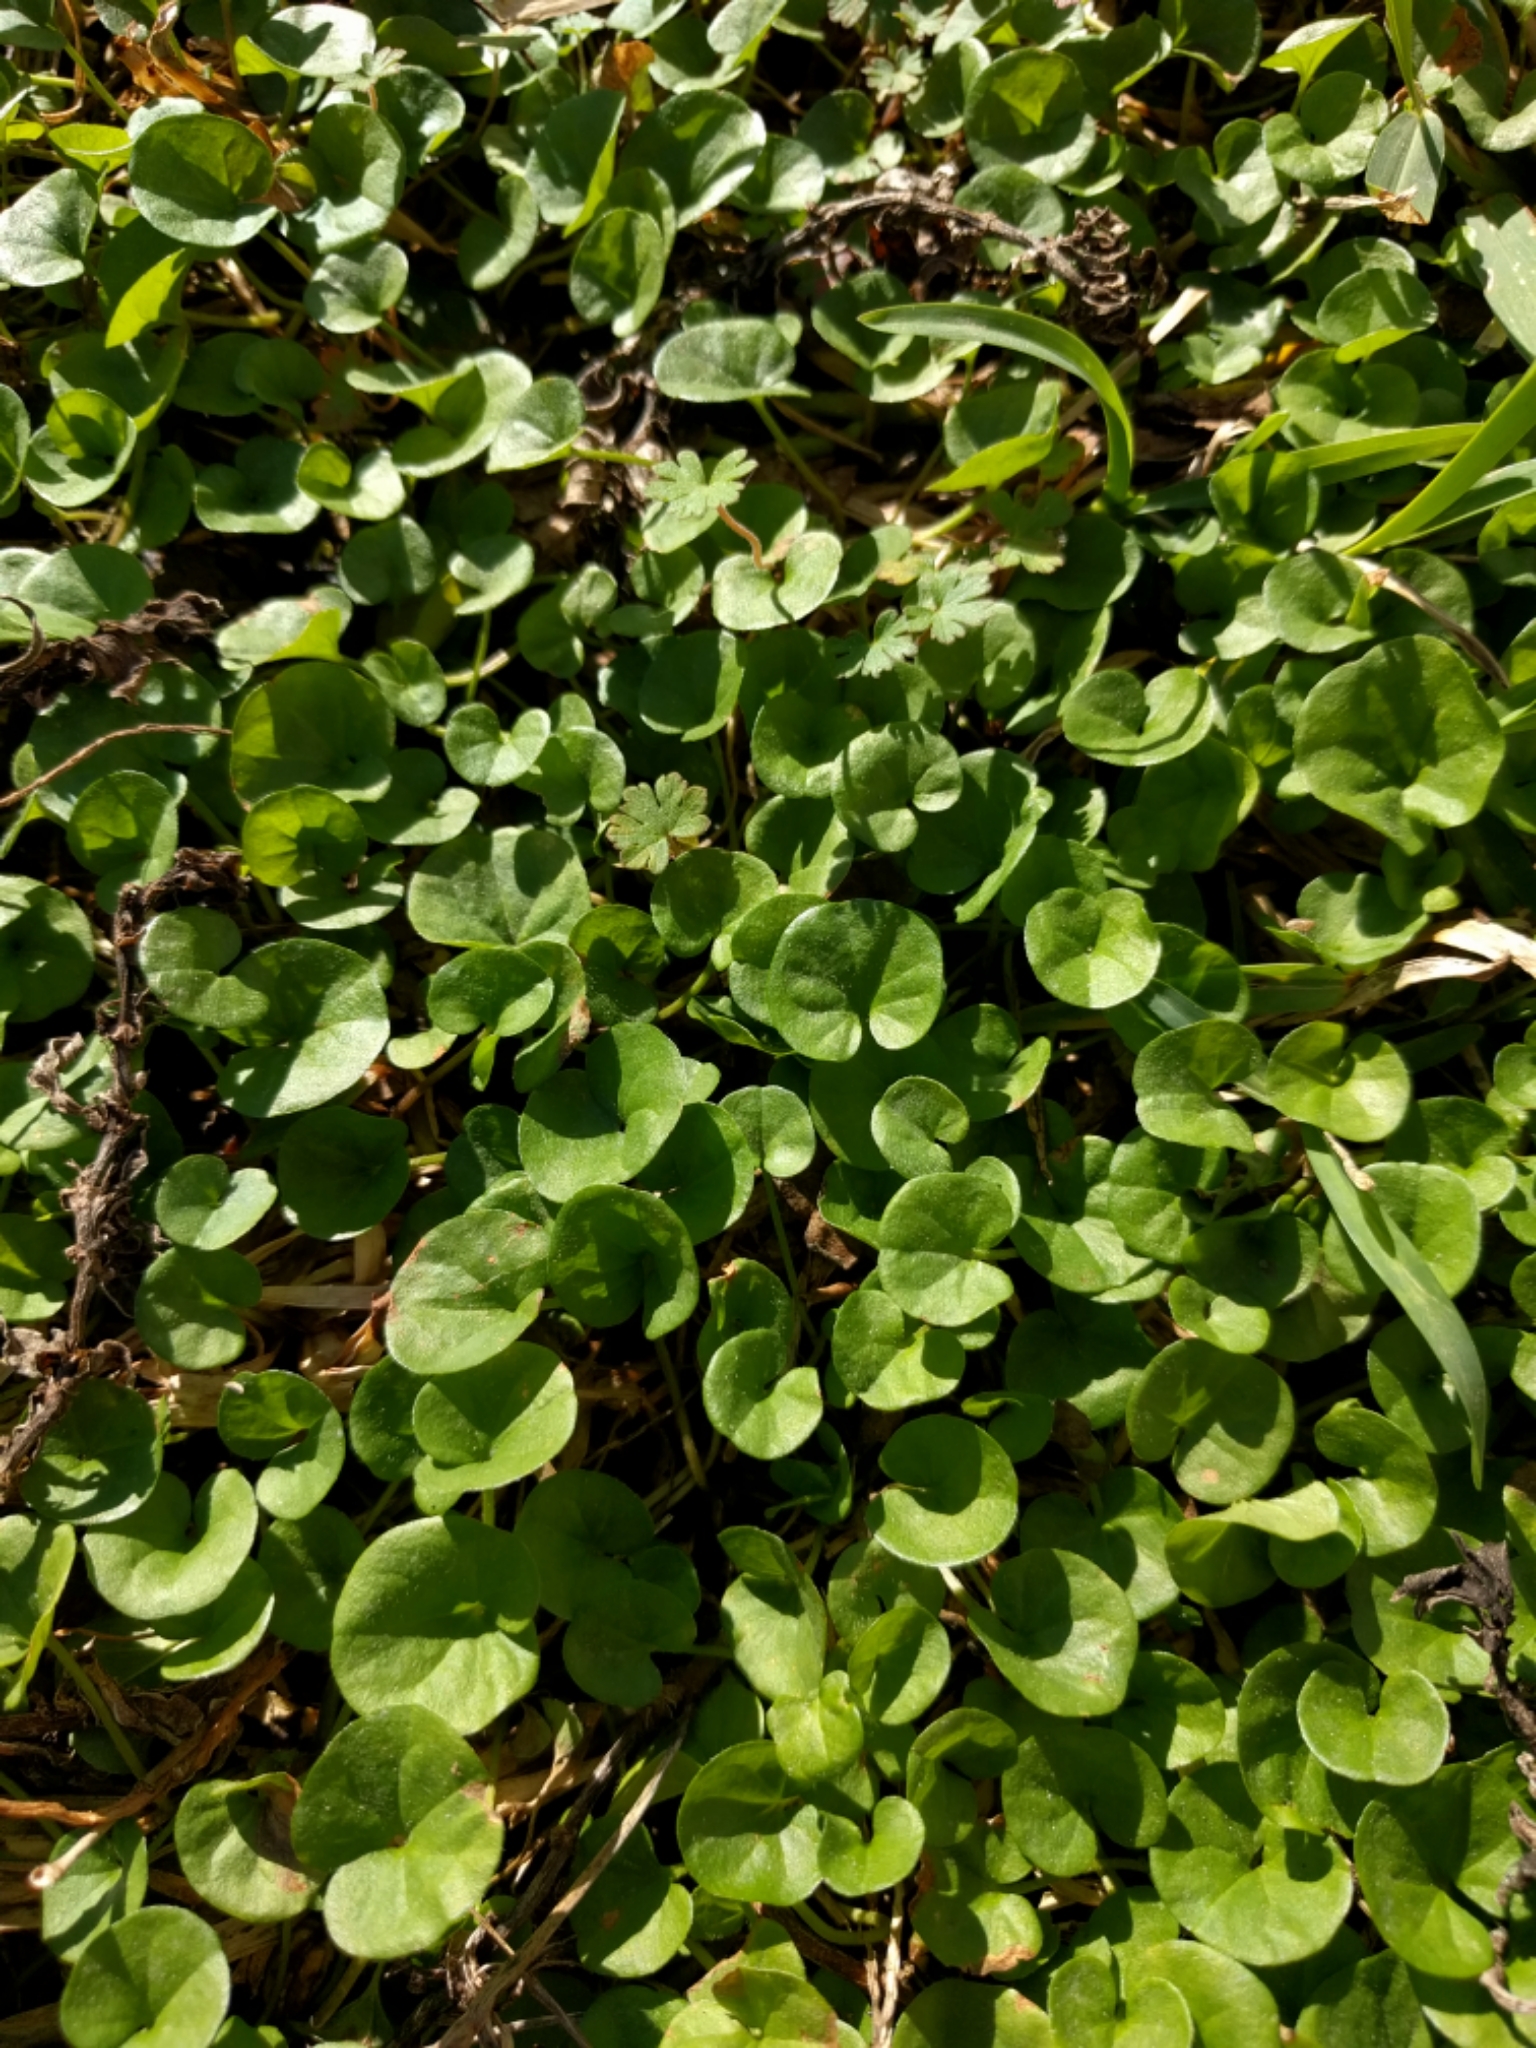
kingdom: Plantae
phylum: Tracheophyta
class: Magnoliopsida
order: Solanales
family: Convolvulaceae
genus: Dichondra
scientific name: Dichondra carolinensis
